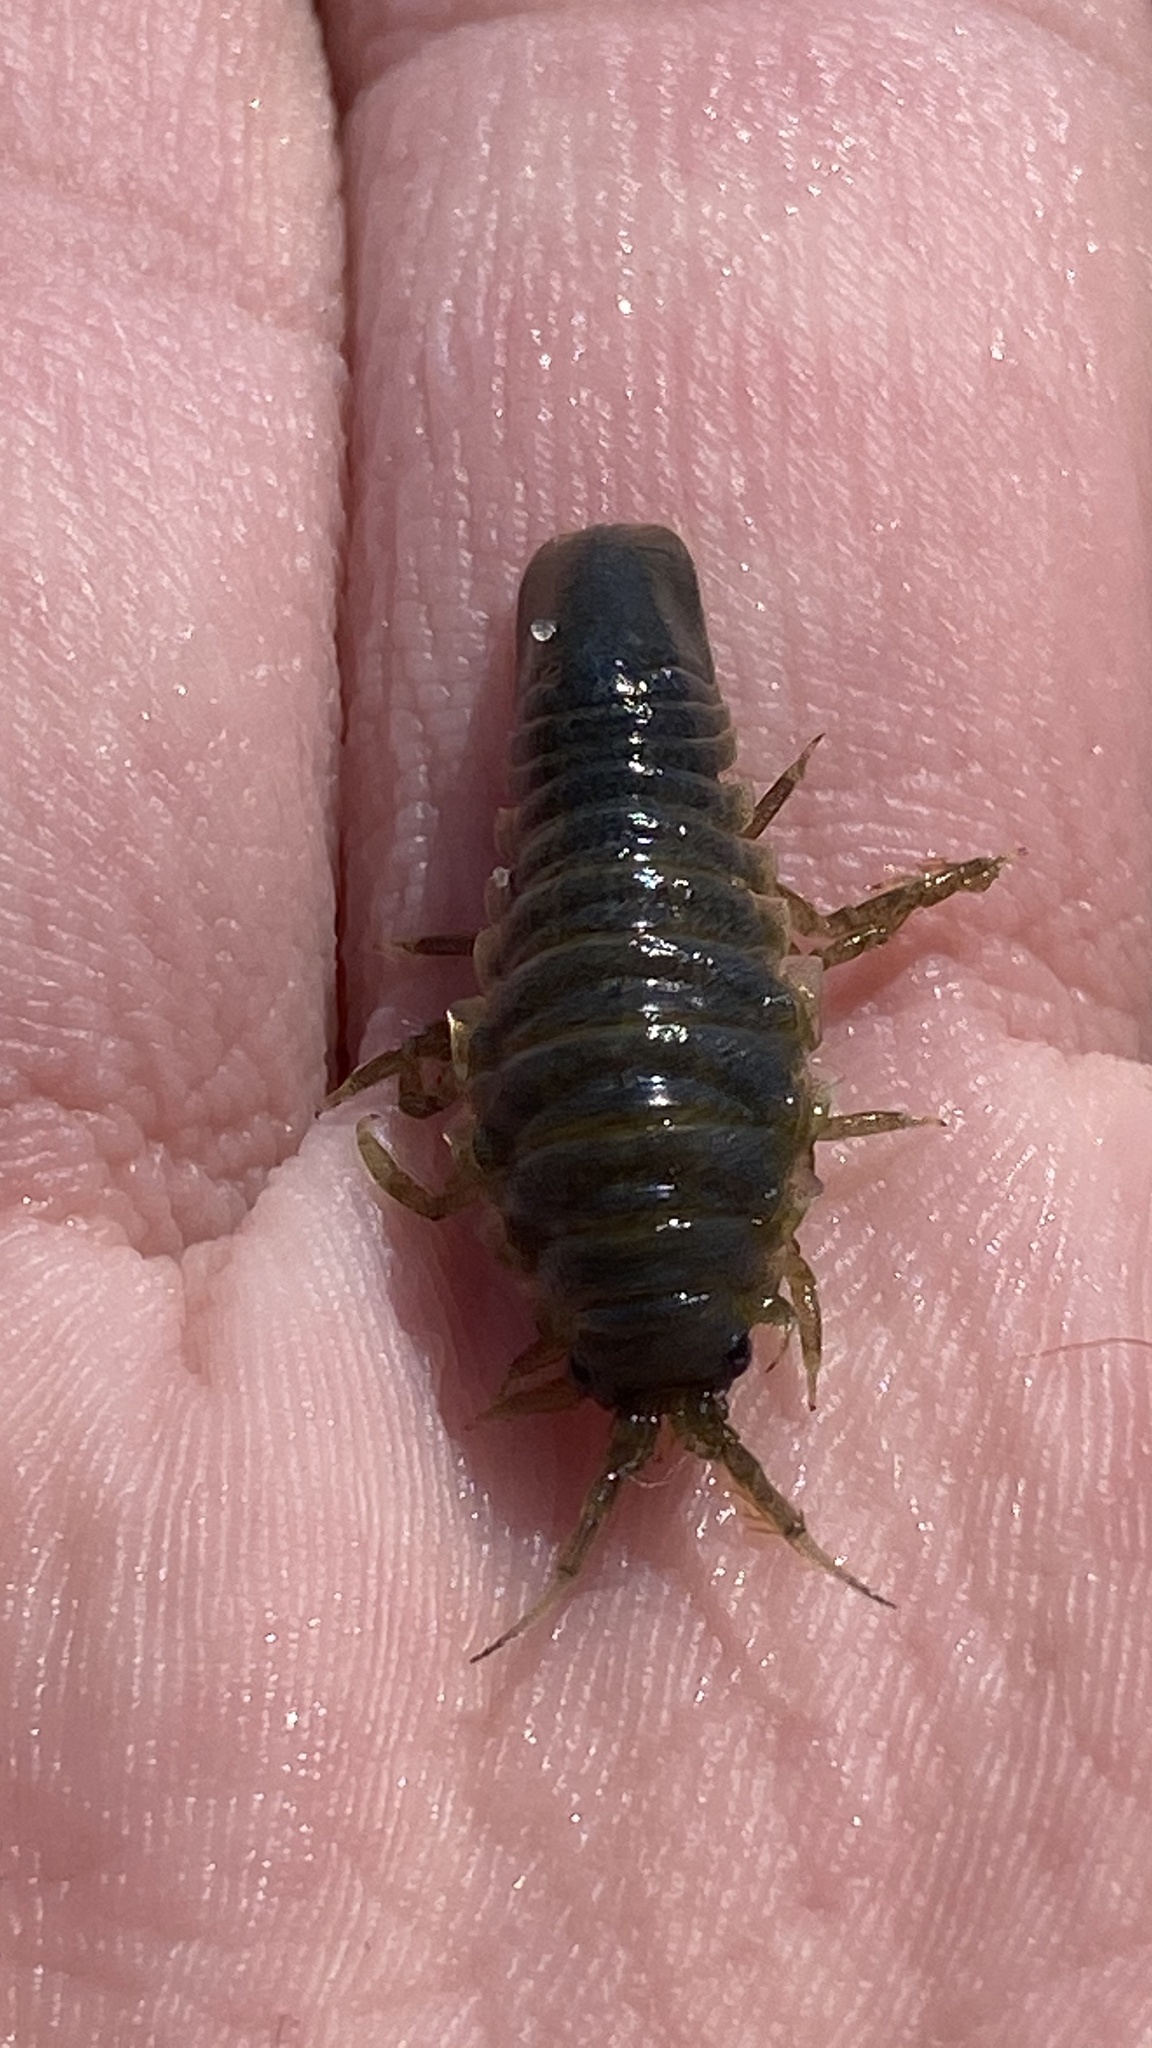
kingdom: Animalia
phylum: Arthropoda
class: Malacostraca
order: Isopoda
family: Idoteidae
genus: Idotea
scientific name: Idotea metallica
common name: Metallic marine isopod
